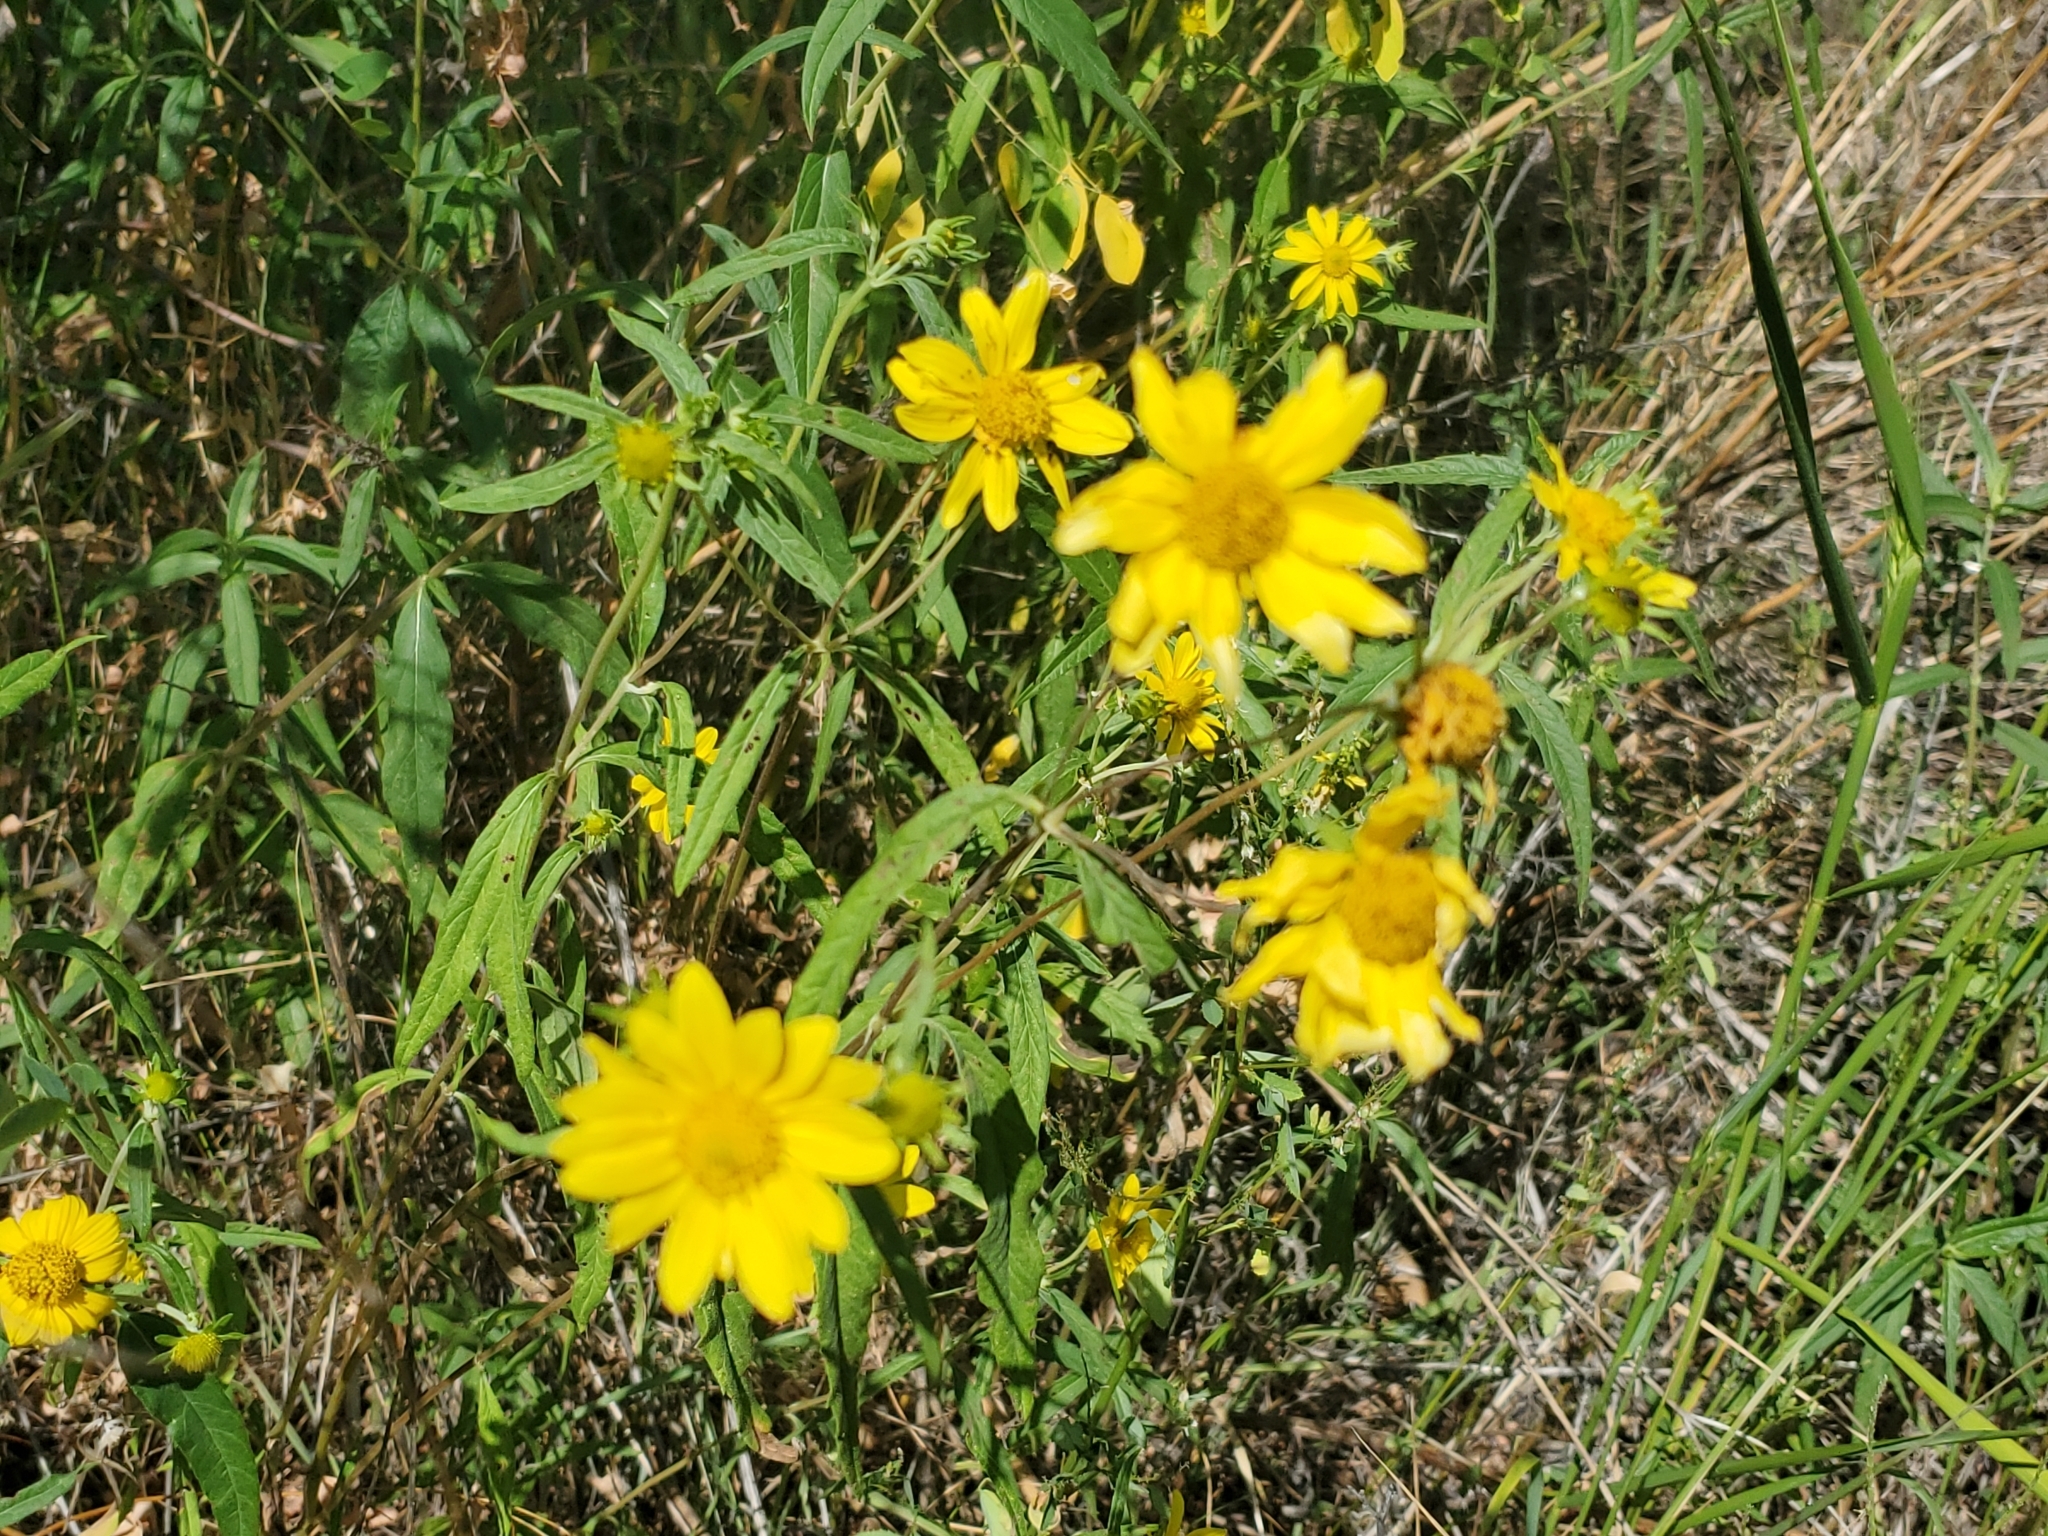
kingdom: Plantae
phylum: Tracheophyta
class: Magnoliopsida
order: Asterales
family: Asteraceae
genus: Heliomeris
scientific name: Heliomeris multiflora
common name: Showy goldeneye
